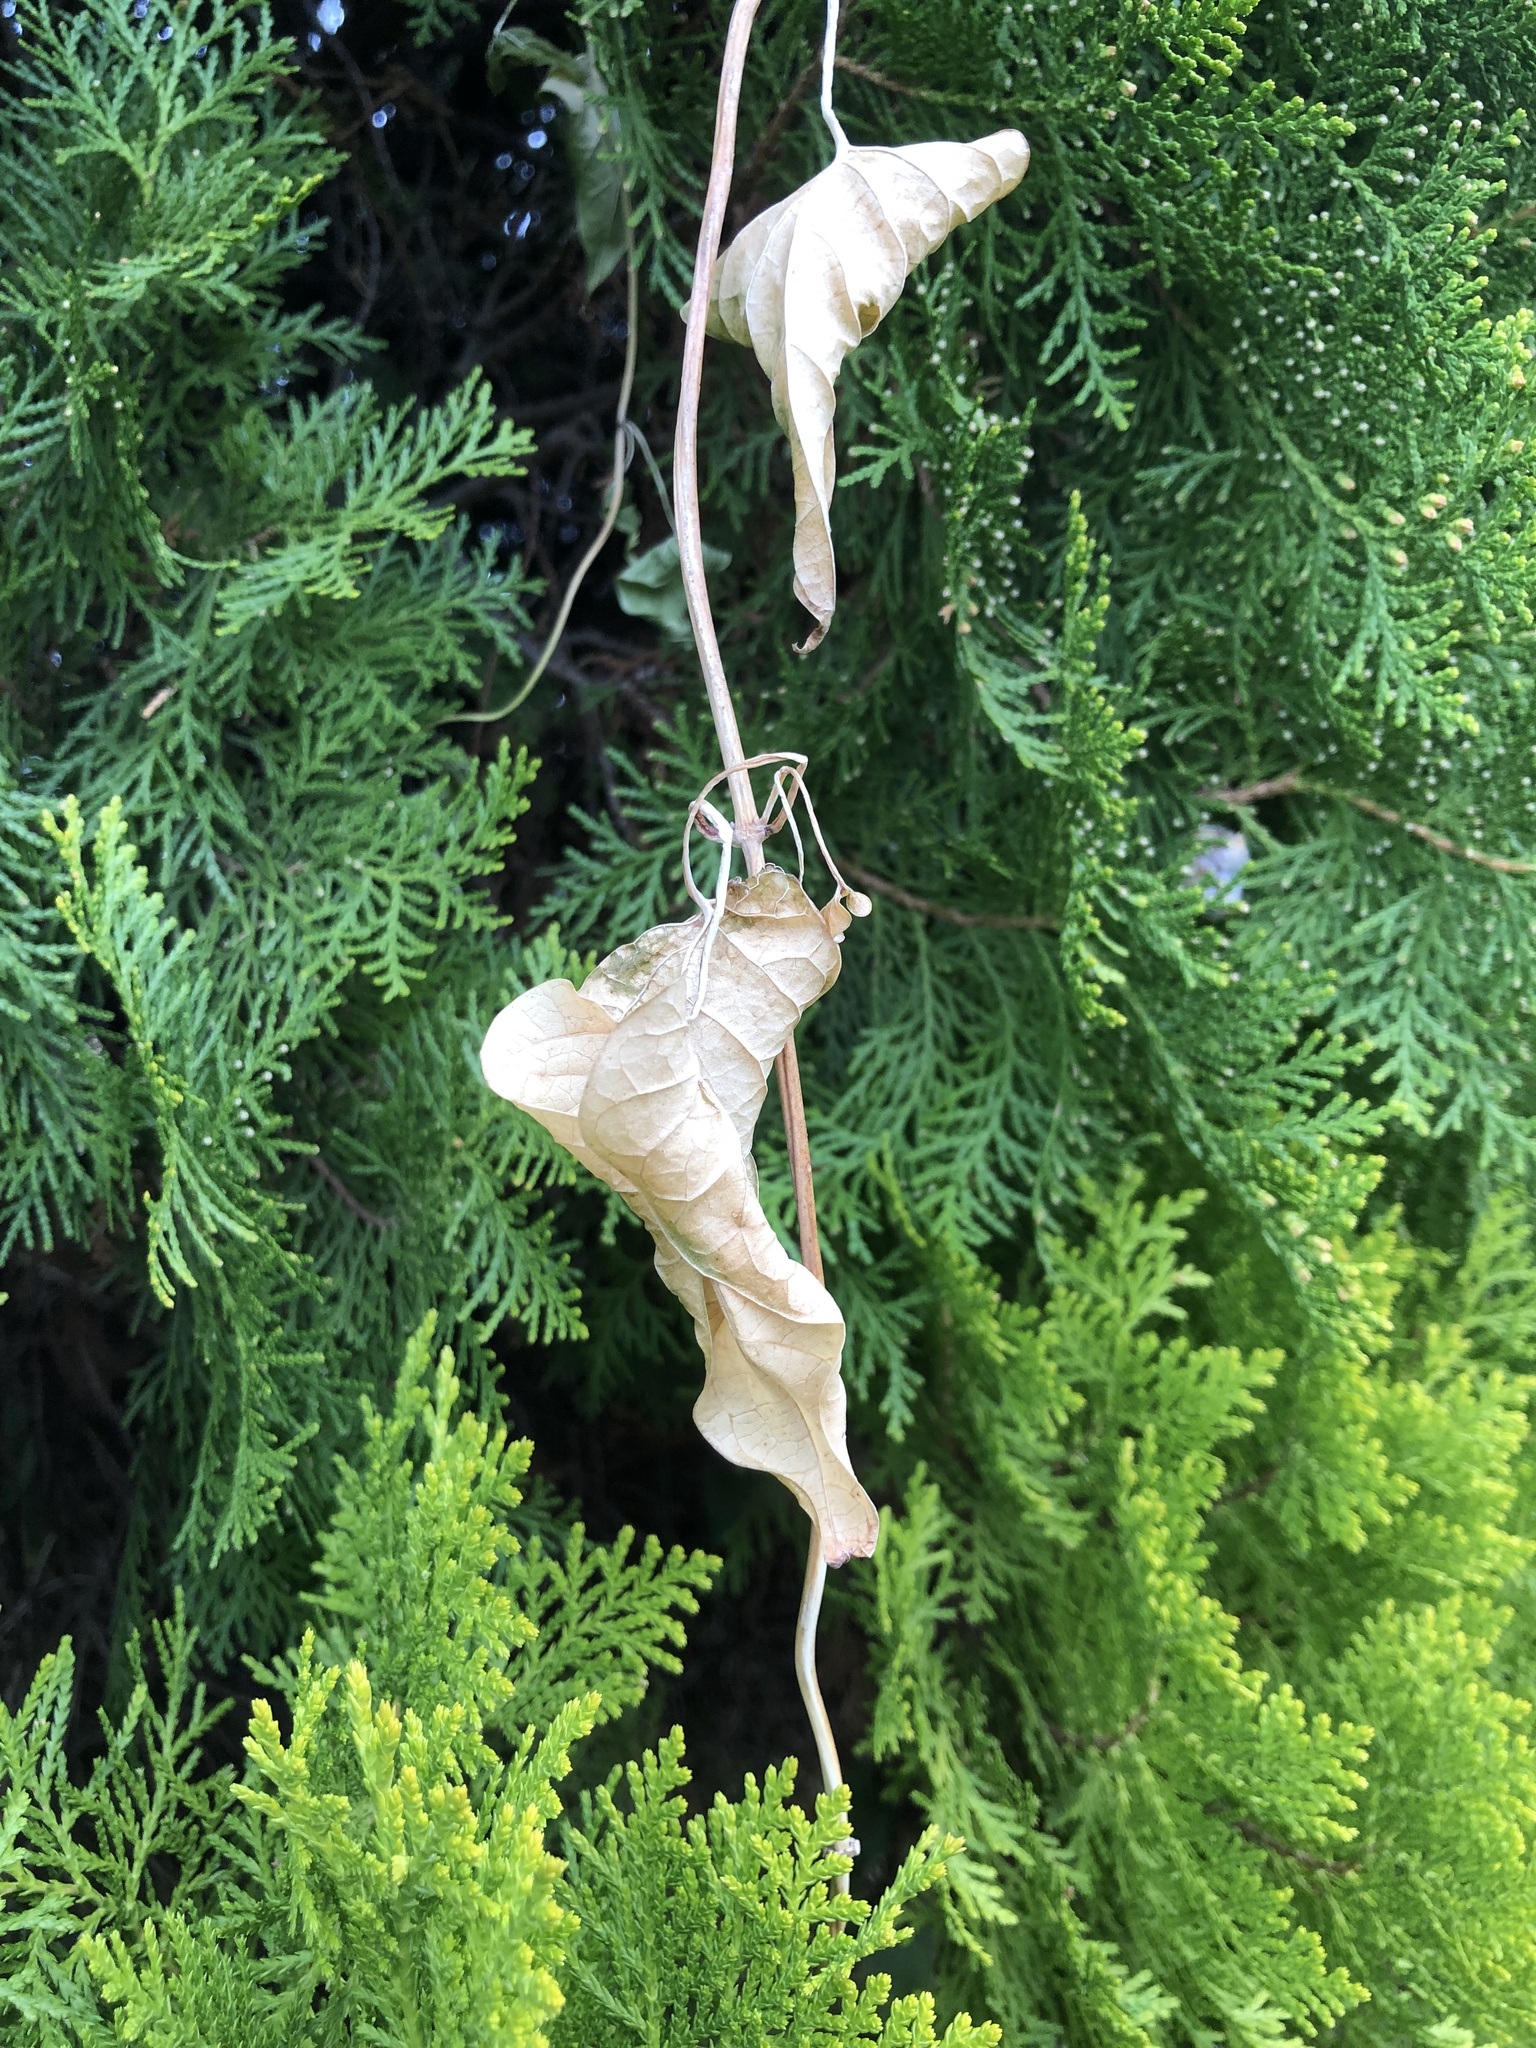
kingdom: Plantae
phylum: Tracheophyta
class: Magnoliopsida
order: Gentianales
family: Apocynaceae
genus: Cynanchum
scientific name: Cynanchum laeve
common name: Sandvine
